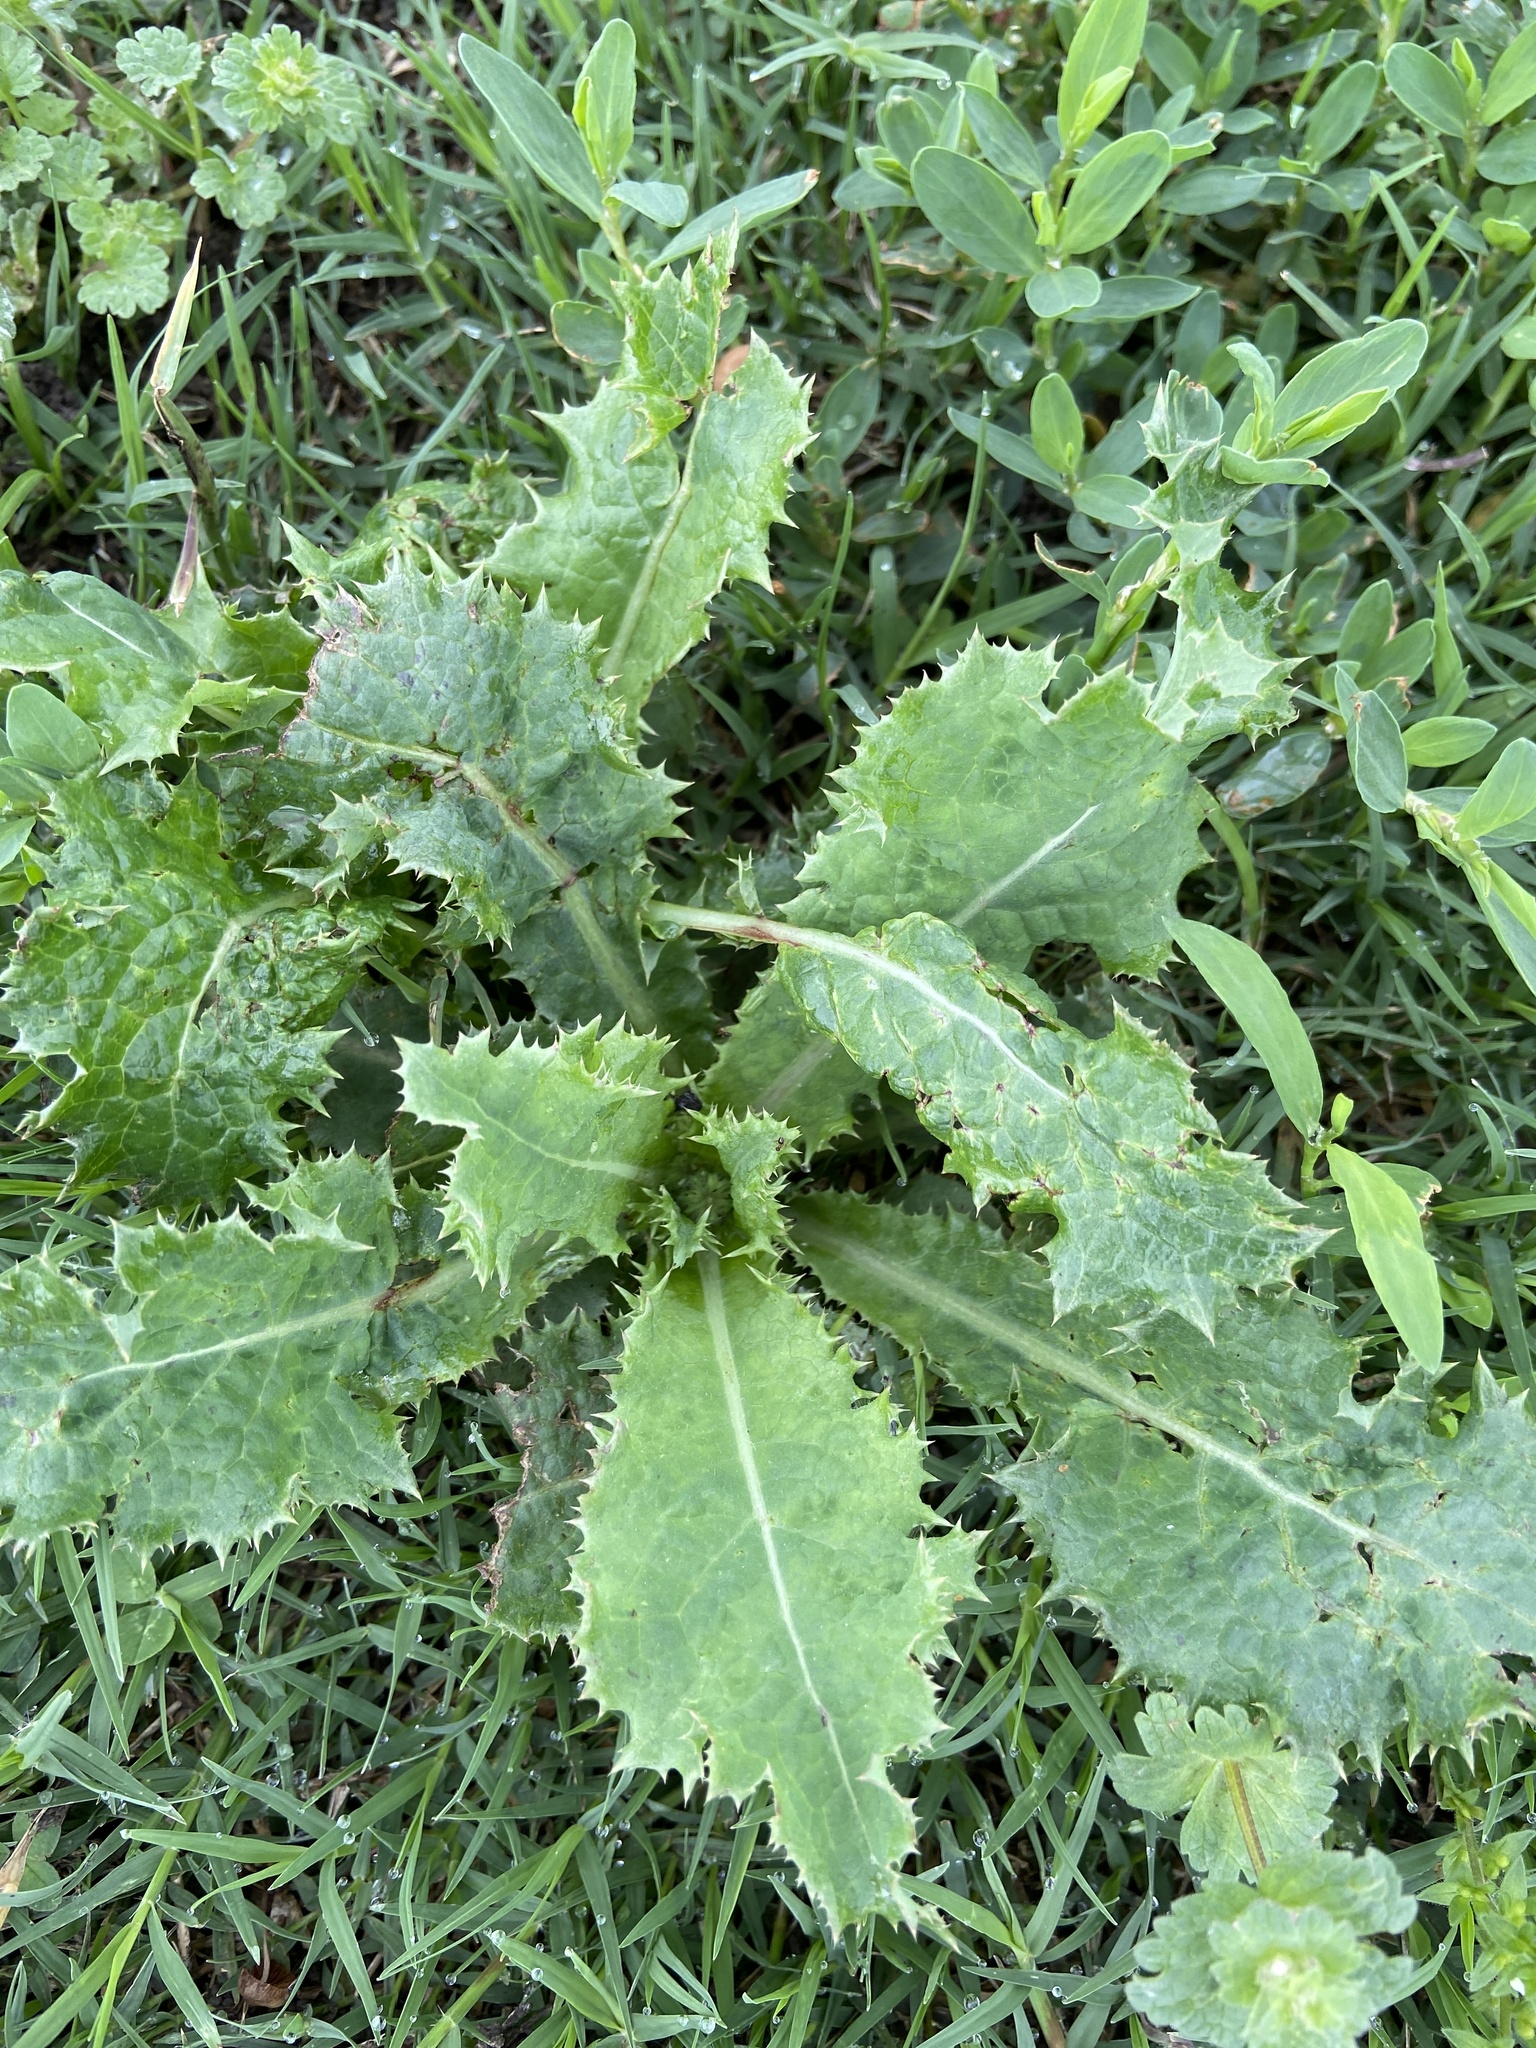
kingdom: Plantae
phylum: Tracheophyta
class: Magnoliopsida
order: Asterales
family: Asteraceae
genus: Sonchus
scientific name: Sonchus asper
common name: Prickly sow-thistle
